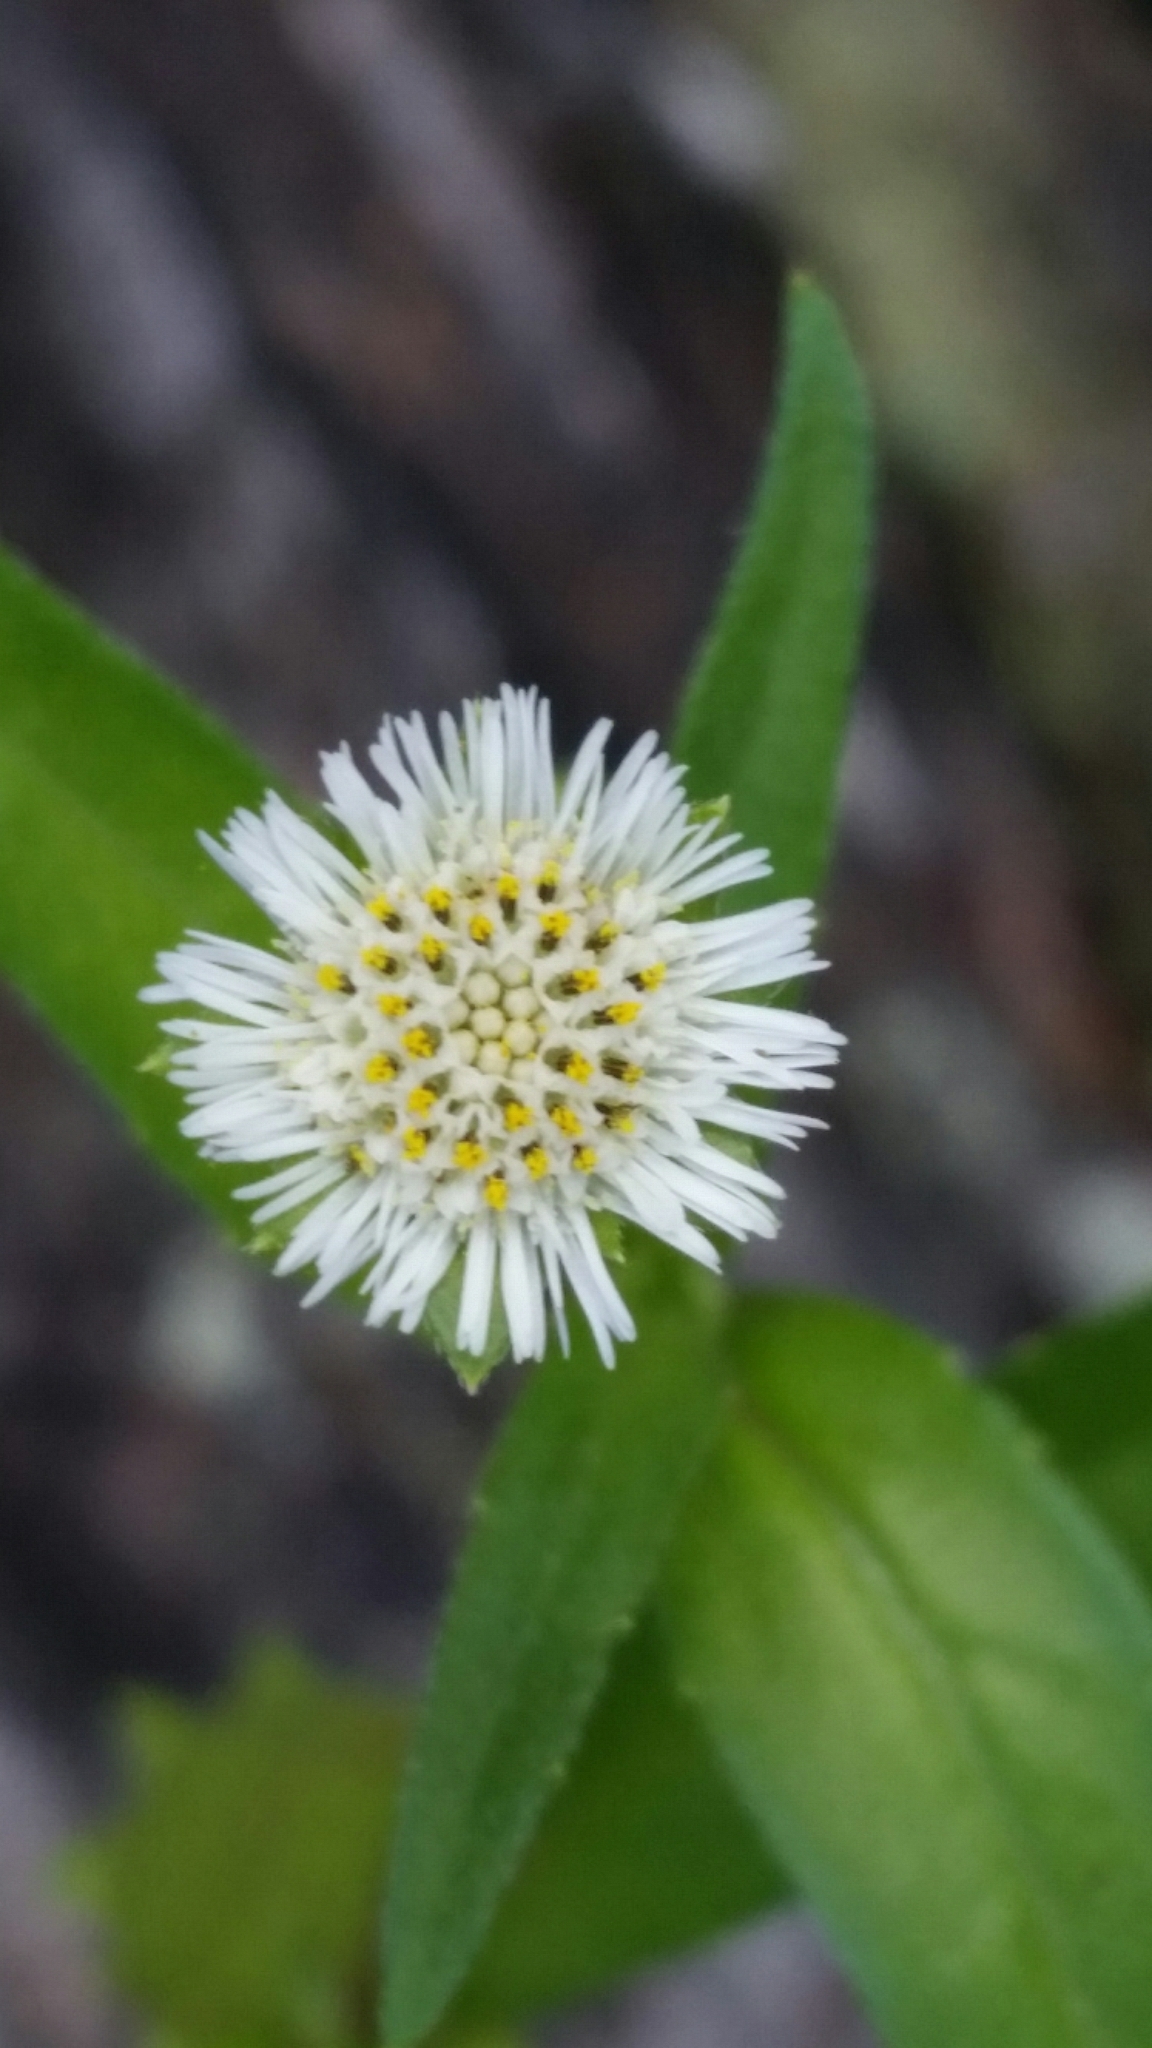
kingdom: Plantae
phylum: Tracheophyta
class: Magnoliopsida
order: Asterales
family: Asteraceae
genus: Eclipta
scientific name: Eclipta prostrata
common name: False daisy
